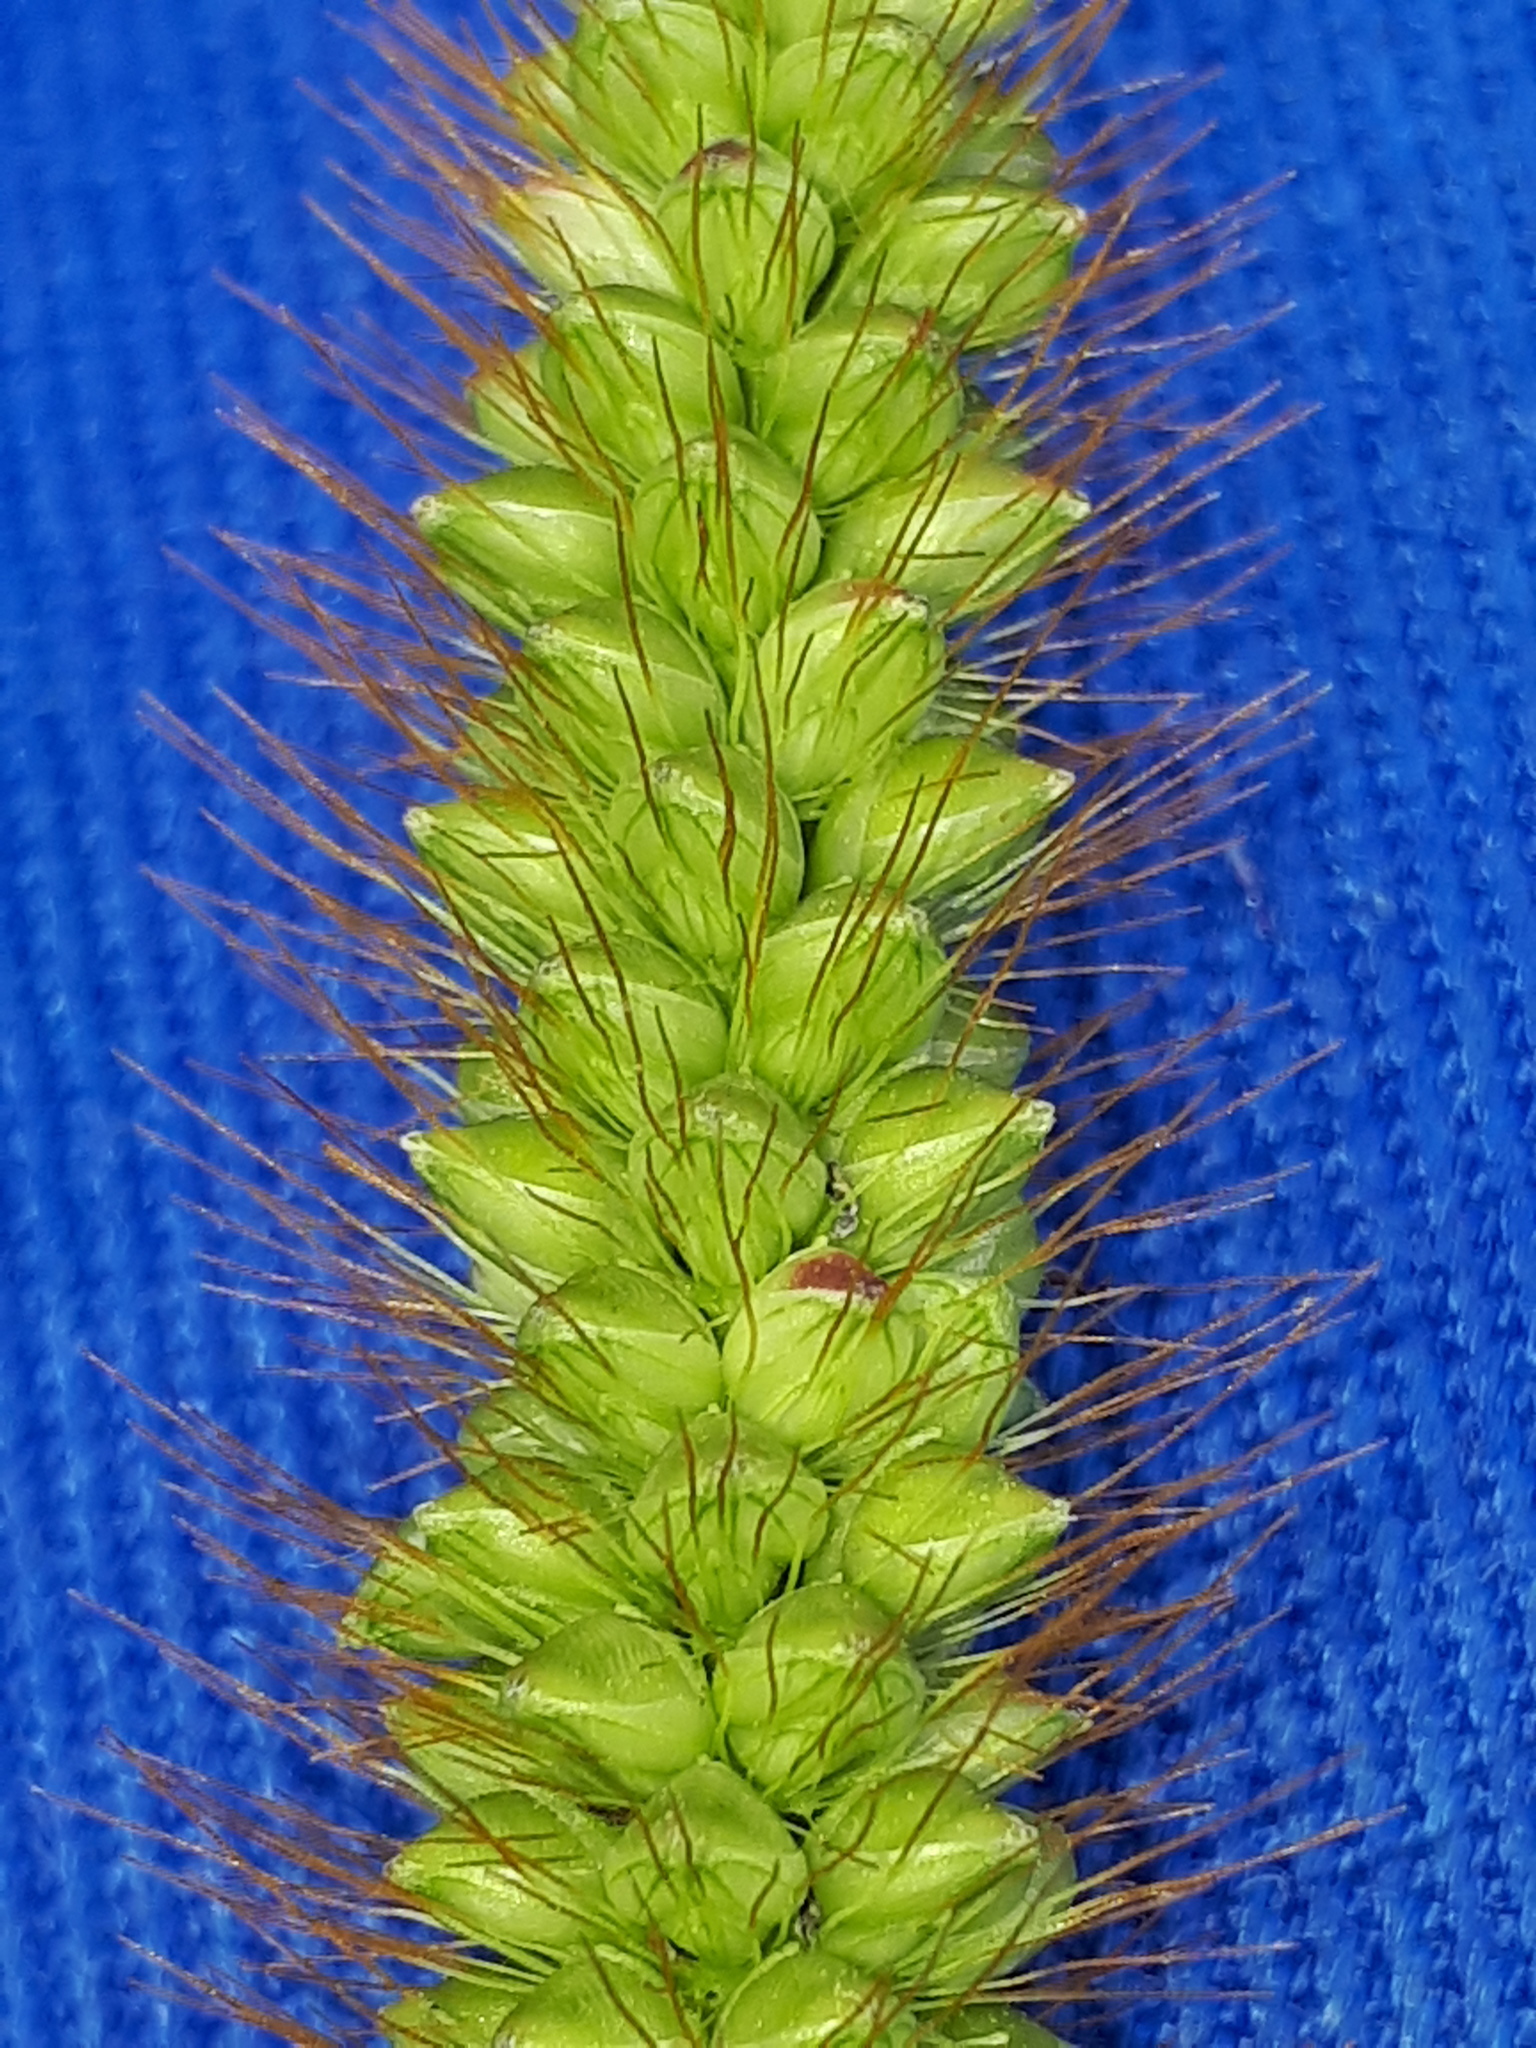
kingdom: Plantae
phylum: Tracheophyta
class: Liliopsida
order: Poales
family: Poaceae
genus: Setaria
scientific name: Setaria pumila
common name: Yellow bristle-grass
